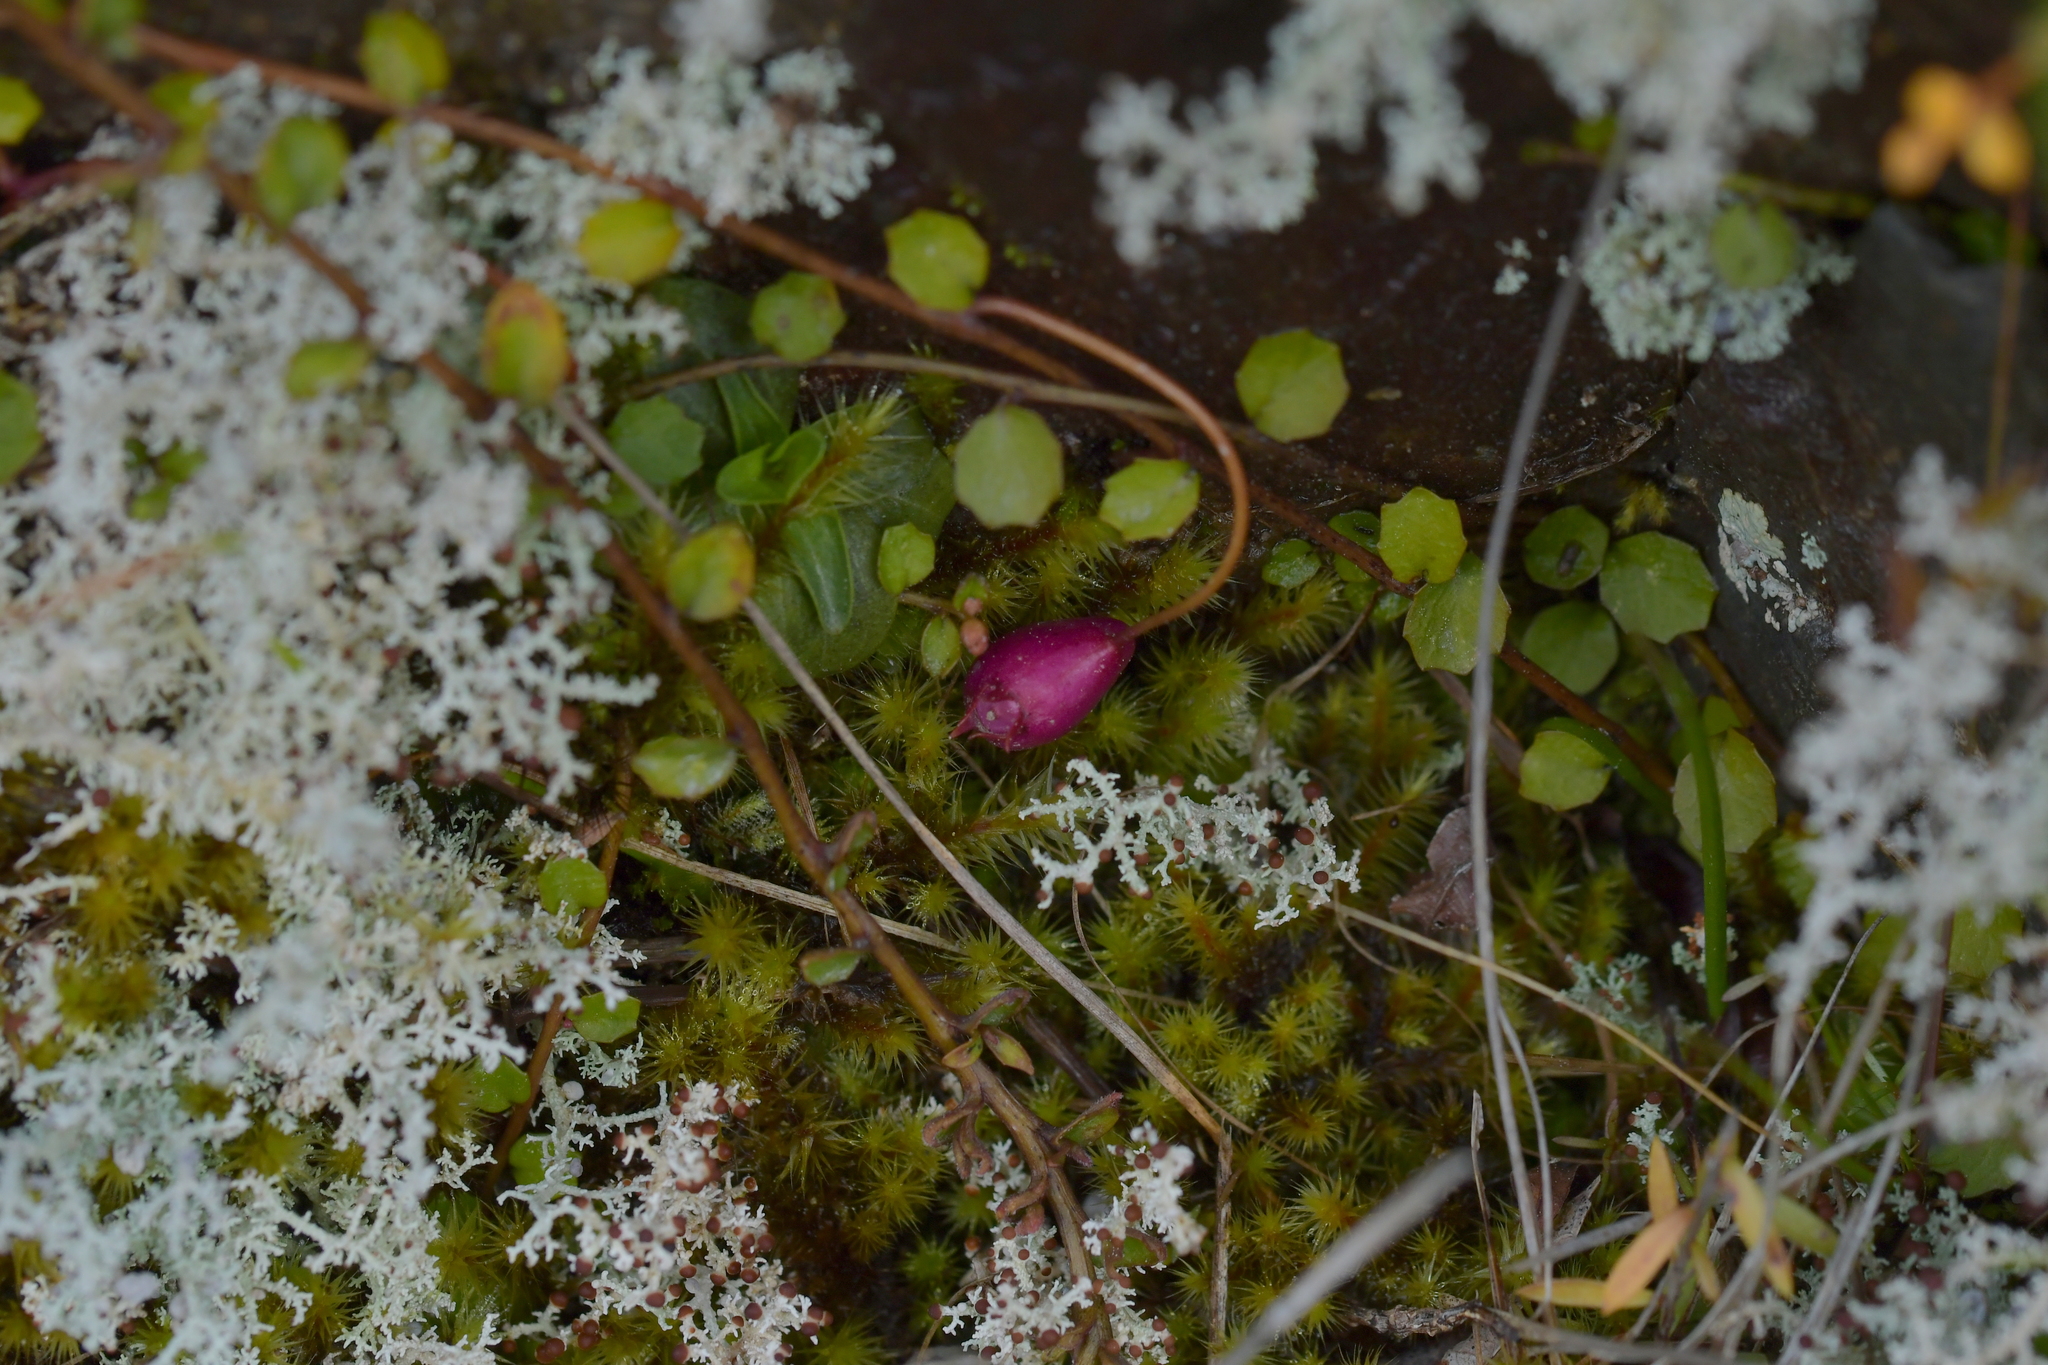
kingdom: Plantae
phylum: Tracheophyta
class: Magnoliopsida
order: Asterales
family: Campanulaceae
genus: Lobelia
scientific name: Lobelia angulata
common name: Lawn lobelia
